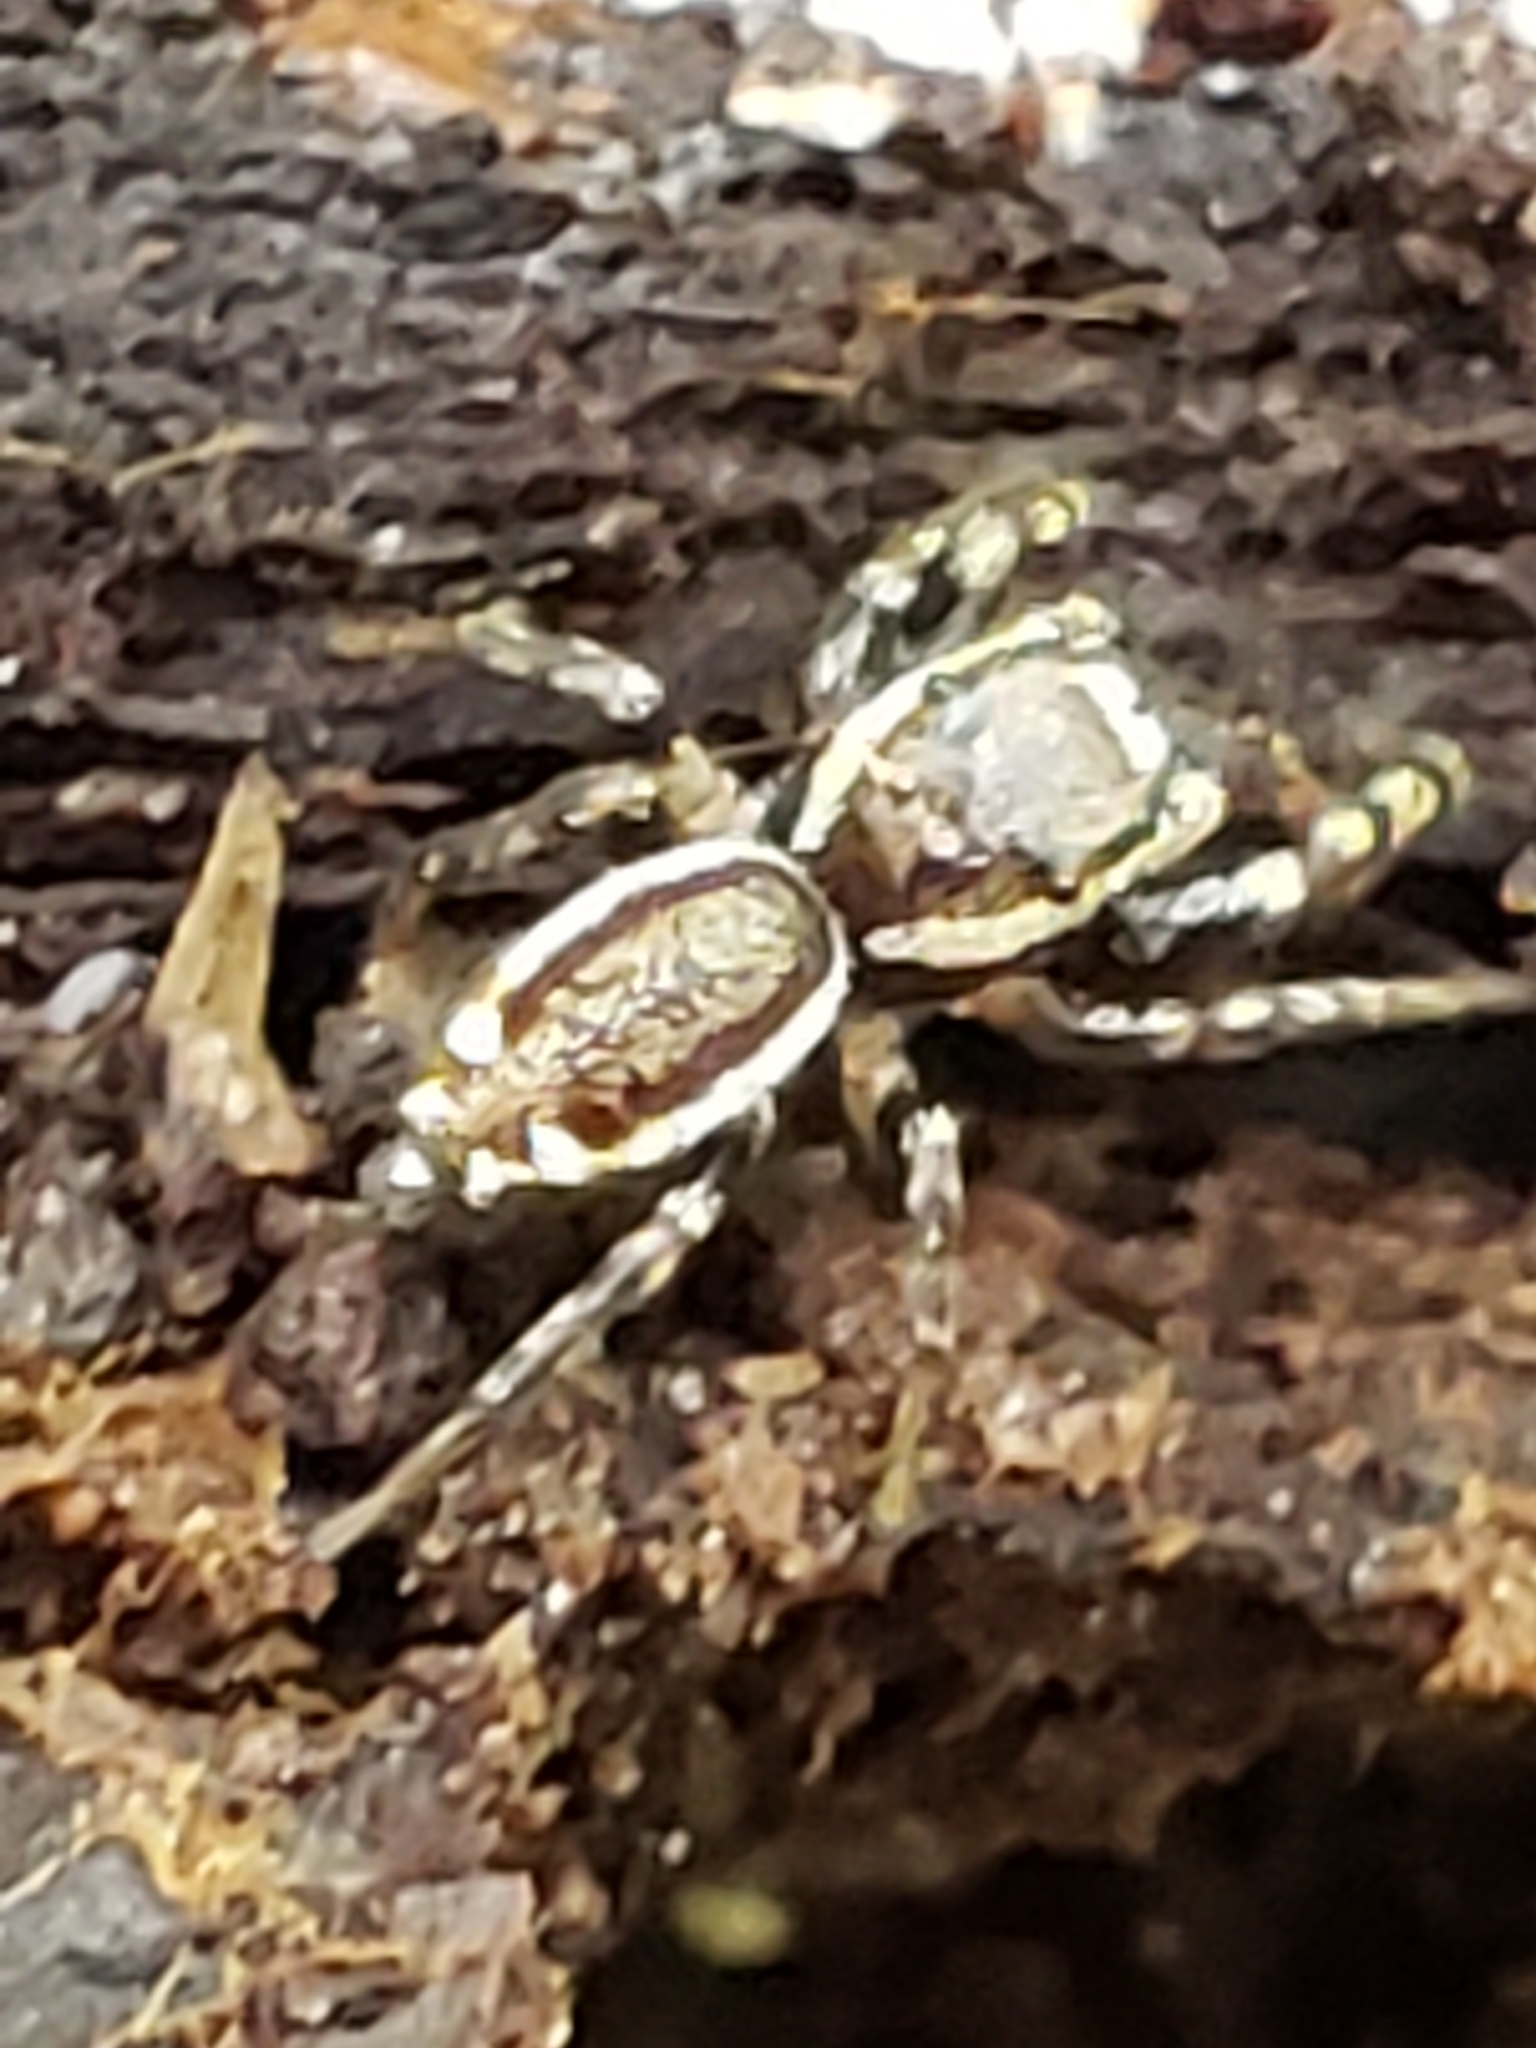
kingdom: Animalia
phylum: Arthropoda
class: Arachnida
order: Araneae
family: Salticidae
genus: Pelegrina
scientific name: Pelegrina proterva
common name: Common white-cheeked jumping spider
